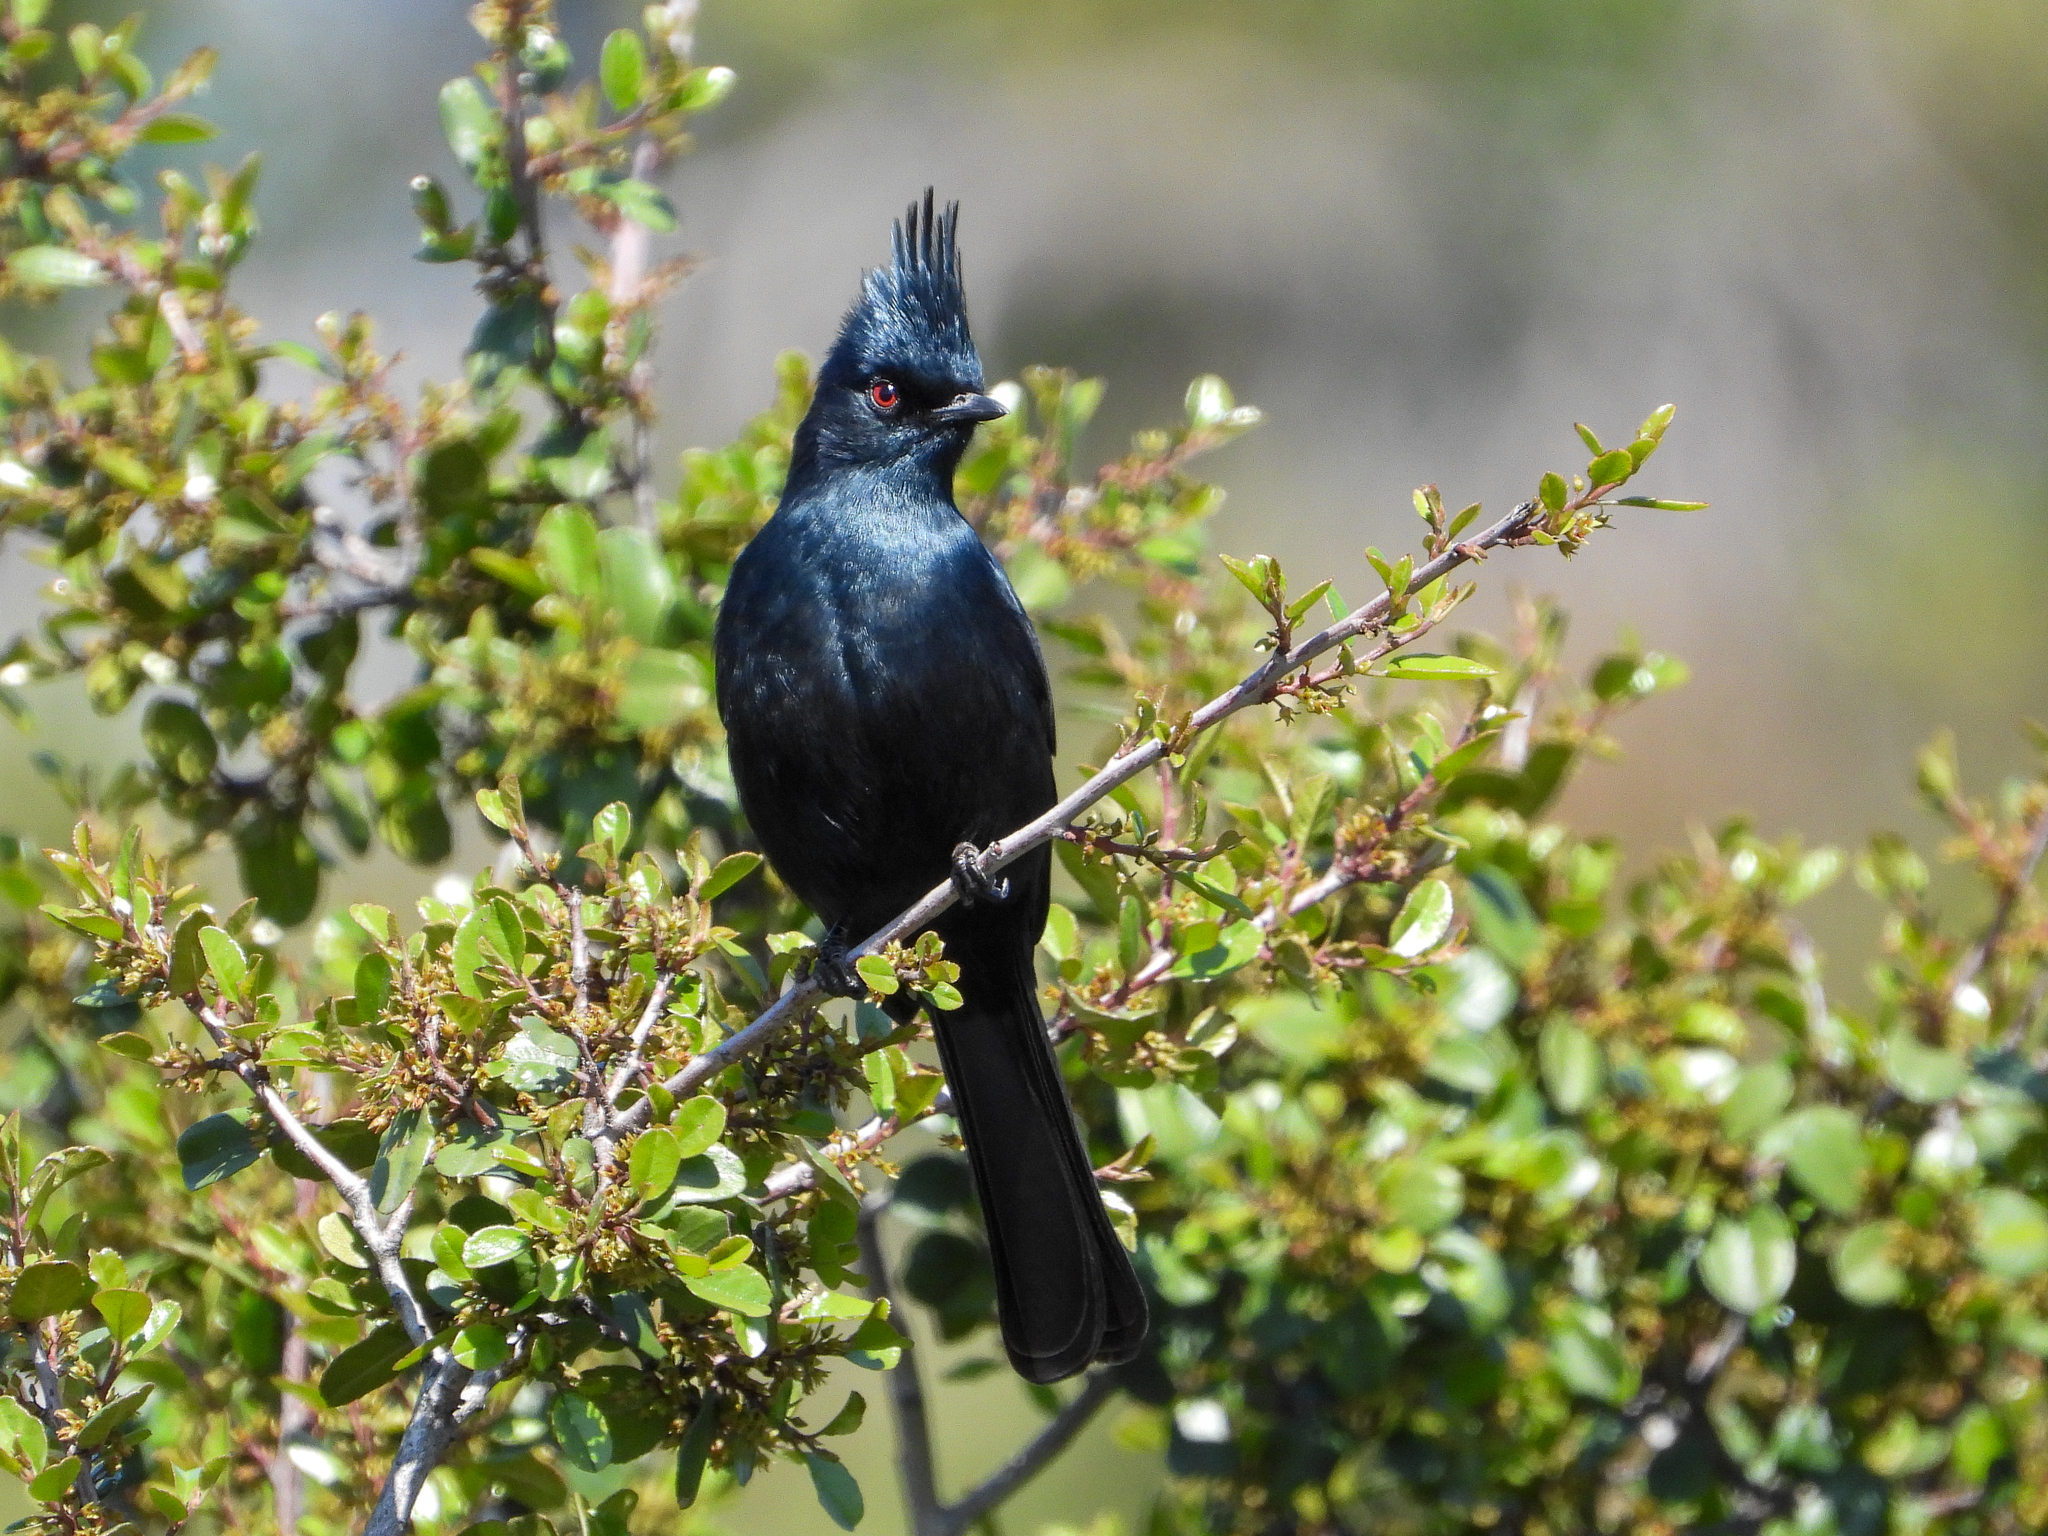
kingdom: Animalia
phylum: Chordata
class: Aves
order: Passeriformes
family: Ptilogonatidae
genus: Phainopepla
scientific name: Phainopepla nitens
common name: Phainopepla
